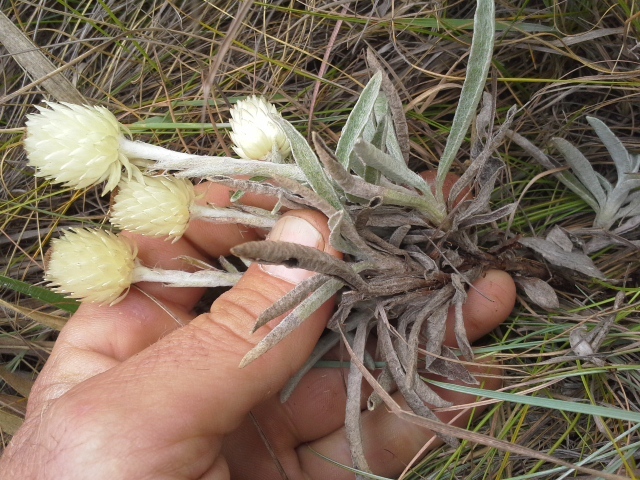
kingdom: Plantae
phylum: Tracheophyta
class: Magnoliopsida
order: Asterales
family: Asteraceae
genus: Helichrysum
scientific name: Helichrysum swynnertonii
